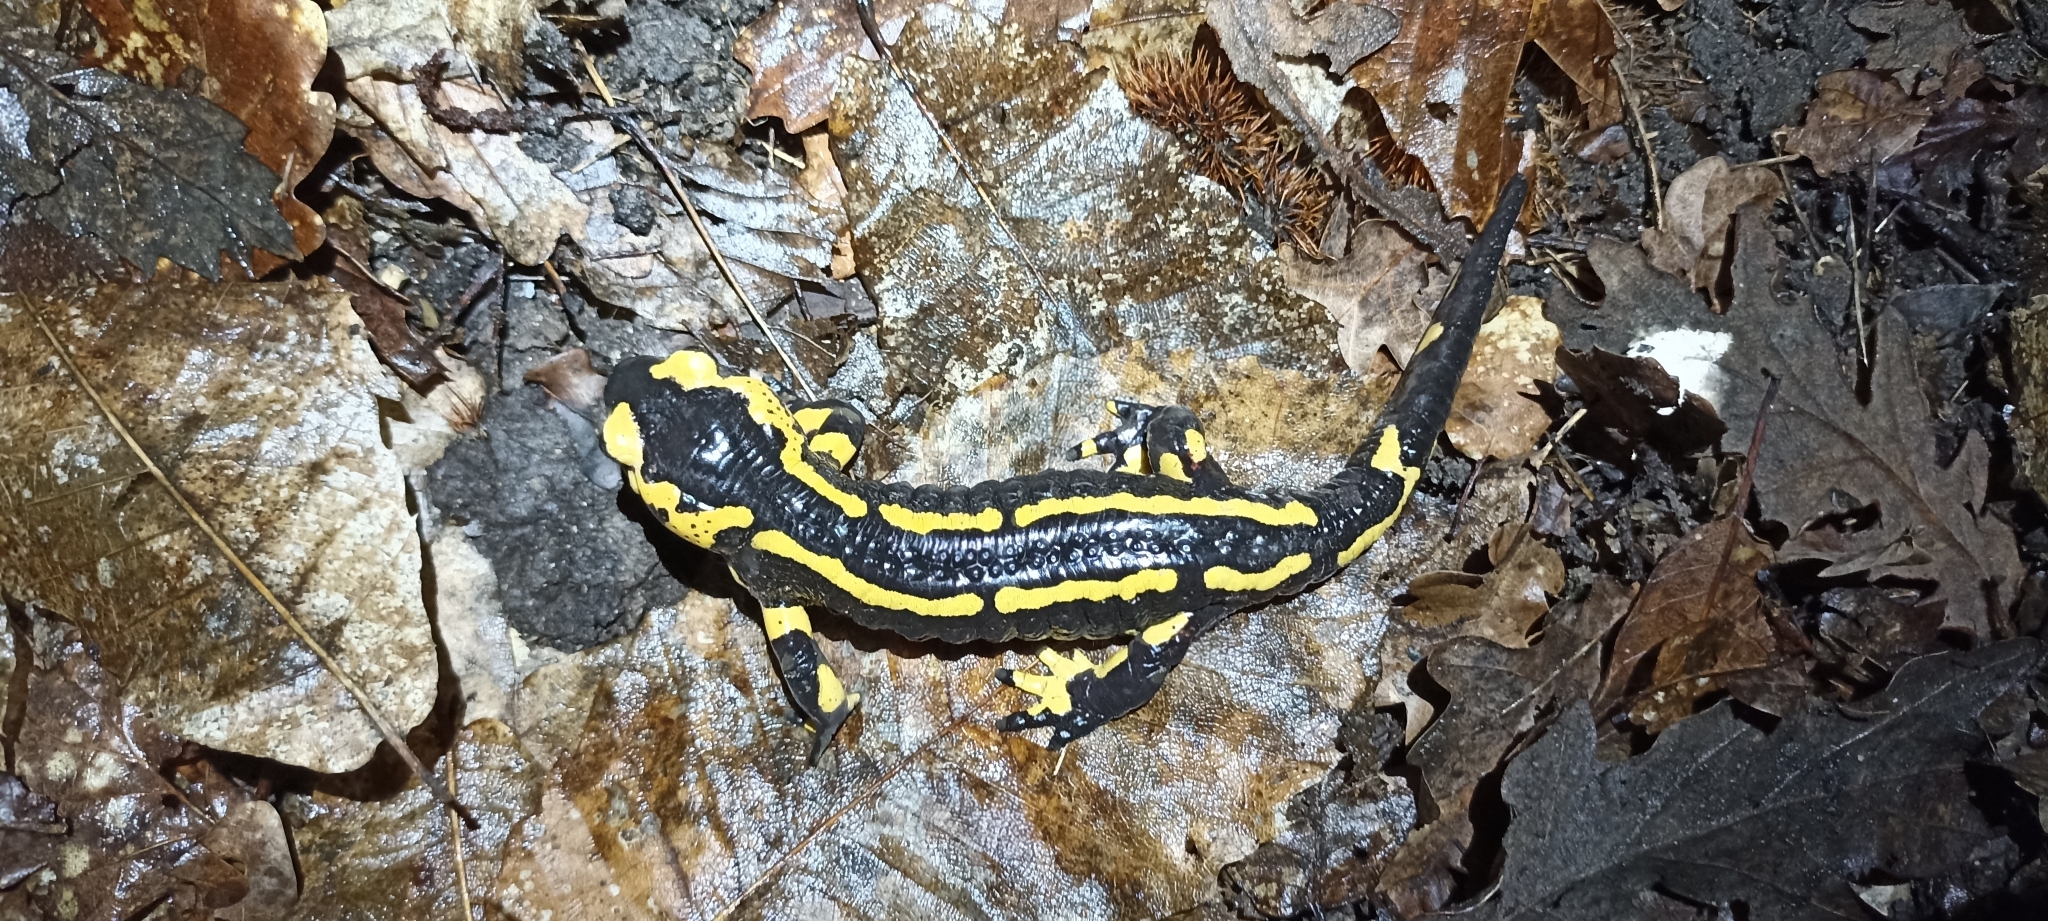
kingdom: Animalia
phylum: Chordata
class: Amphibia
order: Caudata
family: Salamandridae
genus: Salamandra
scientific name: Salamandra salamandra
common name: Fire salamander
